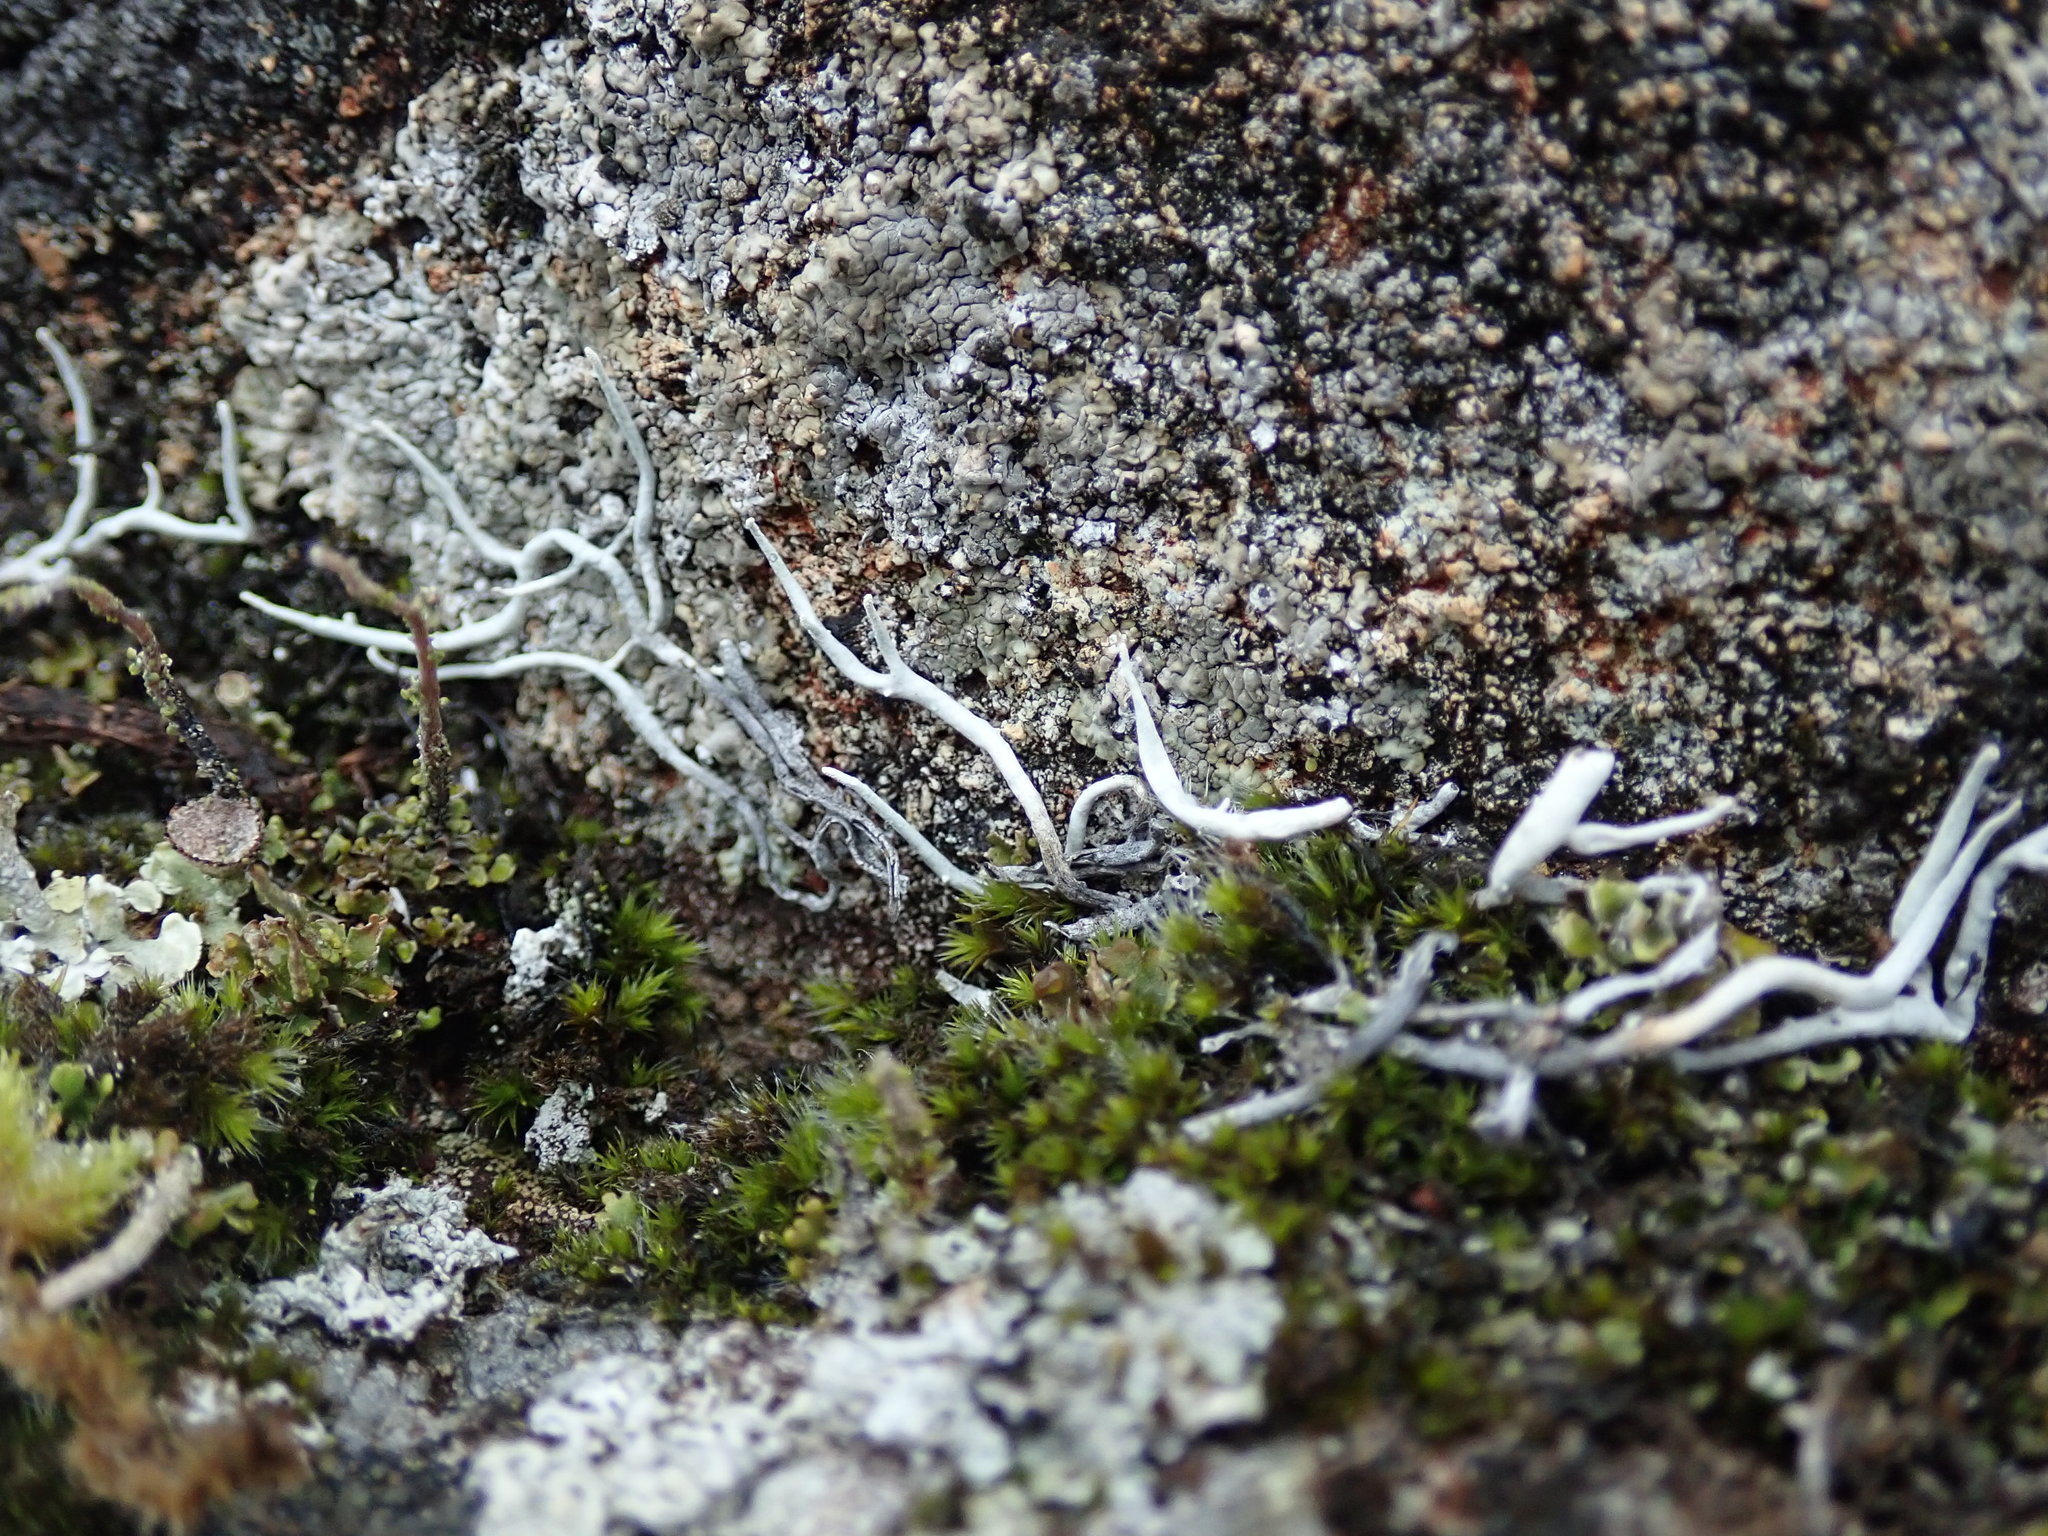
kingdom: Fungi
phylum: Ascomycota
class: Lecanoromycetes
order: Pertusariales
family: Icmadophilaceae
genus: Thamnolia
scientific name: Thamnolia vermicularis
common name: Whiteworm lichen
